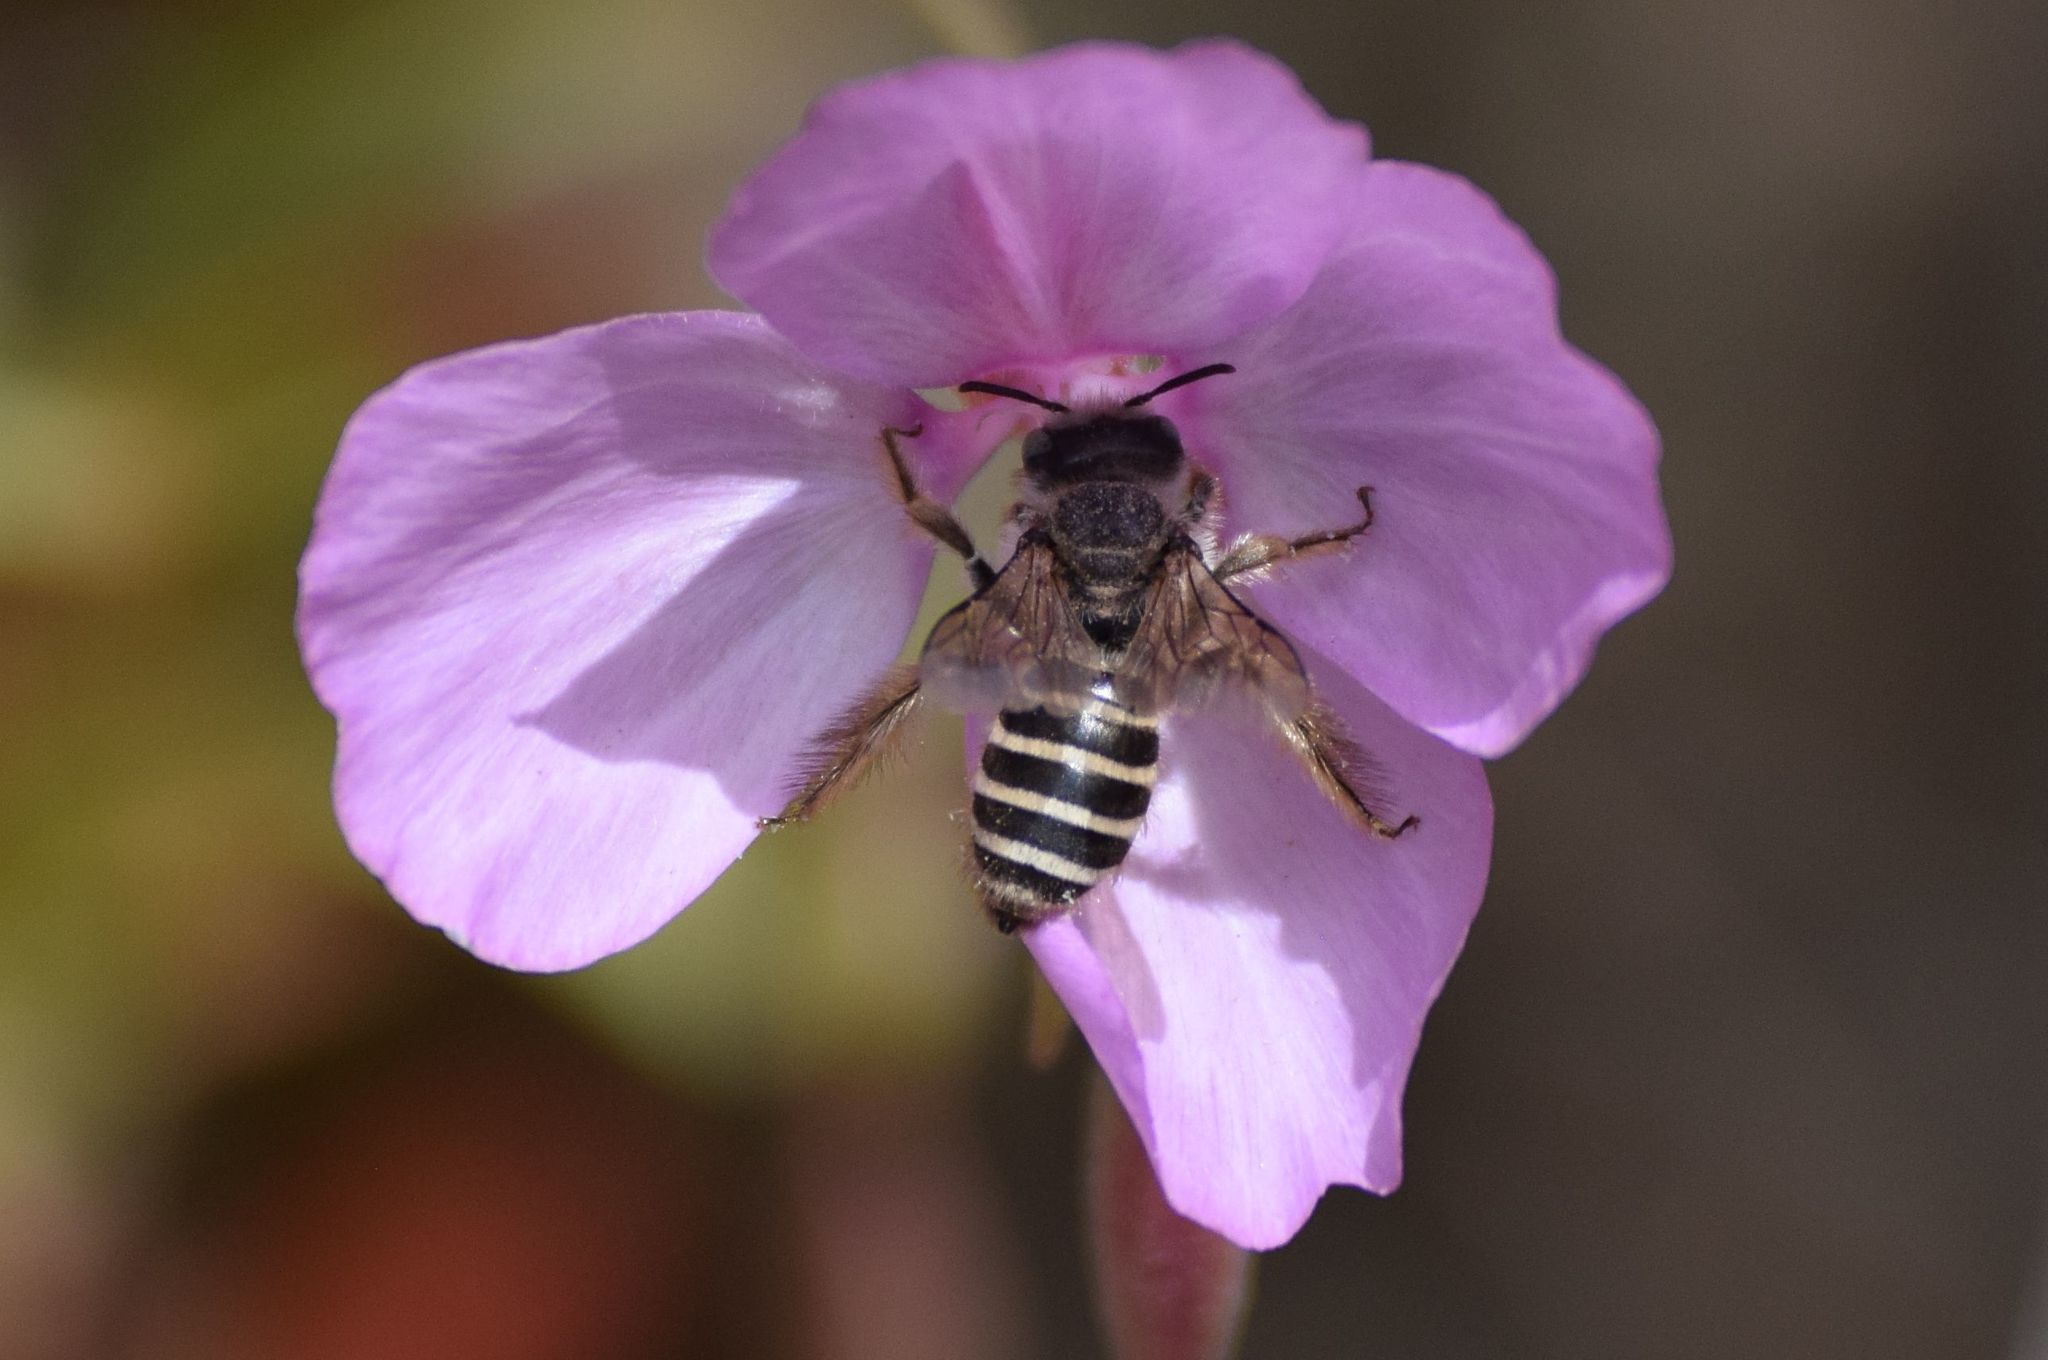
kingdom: Animalia
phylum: Arthropoda
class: Insecta
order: Hymenoptera
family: Melittidae
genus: Hesperapis
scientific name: Hesperapis regularis
